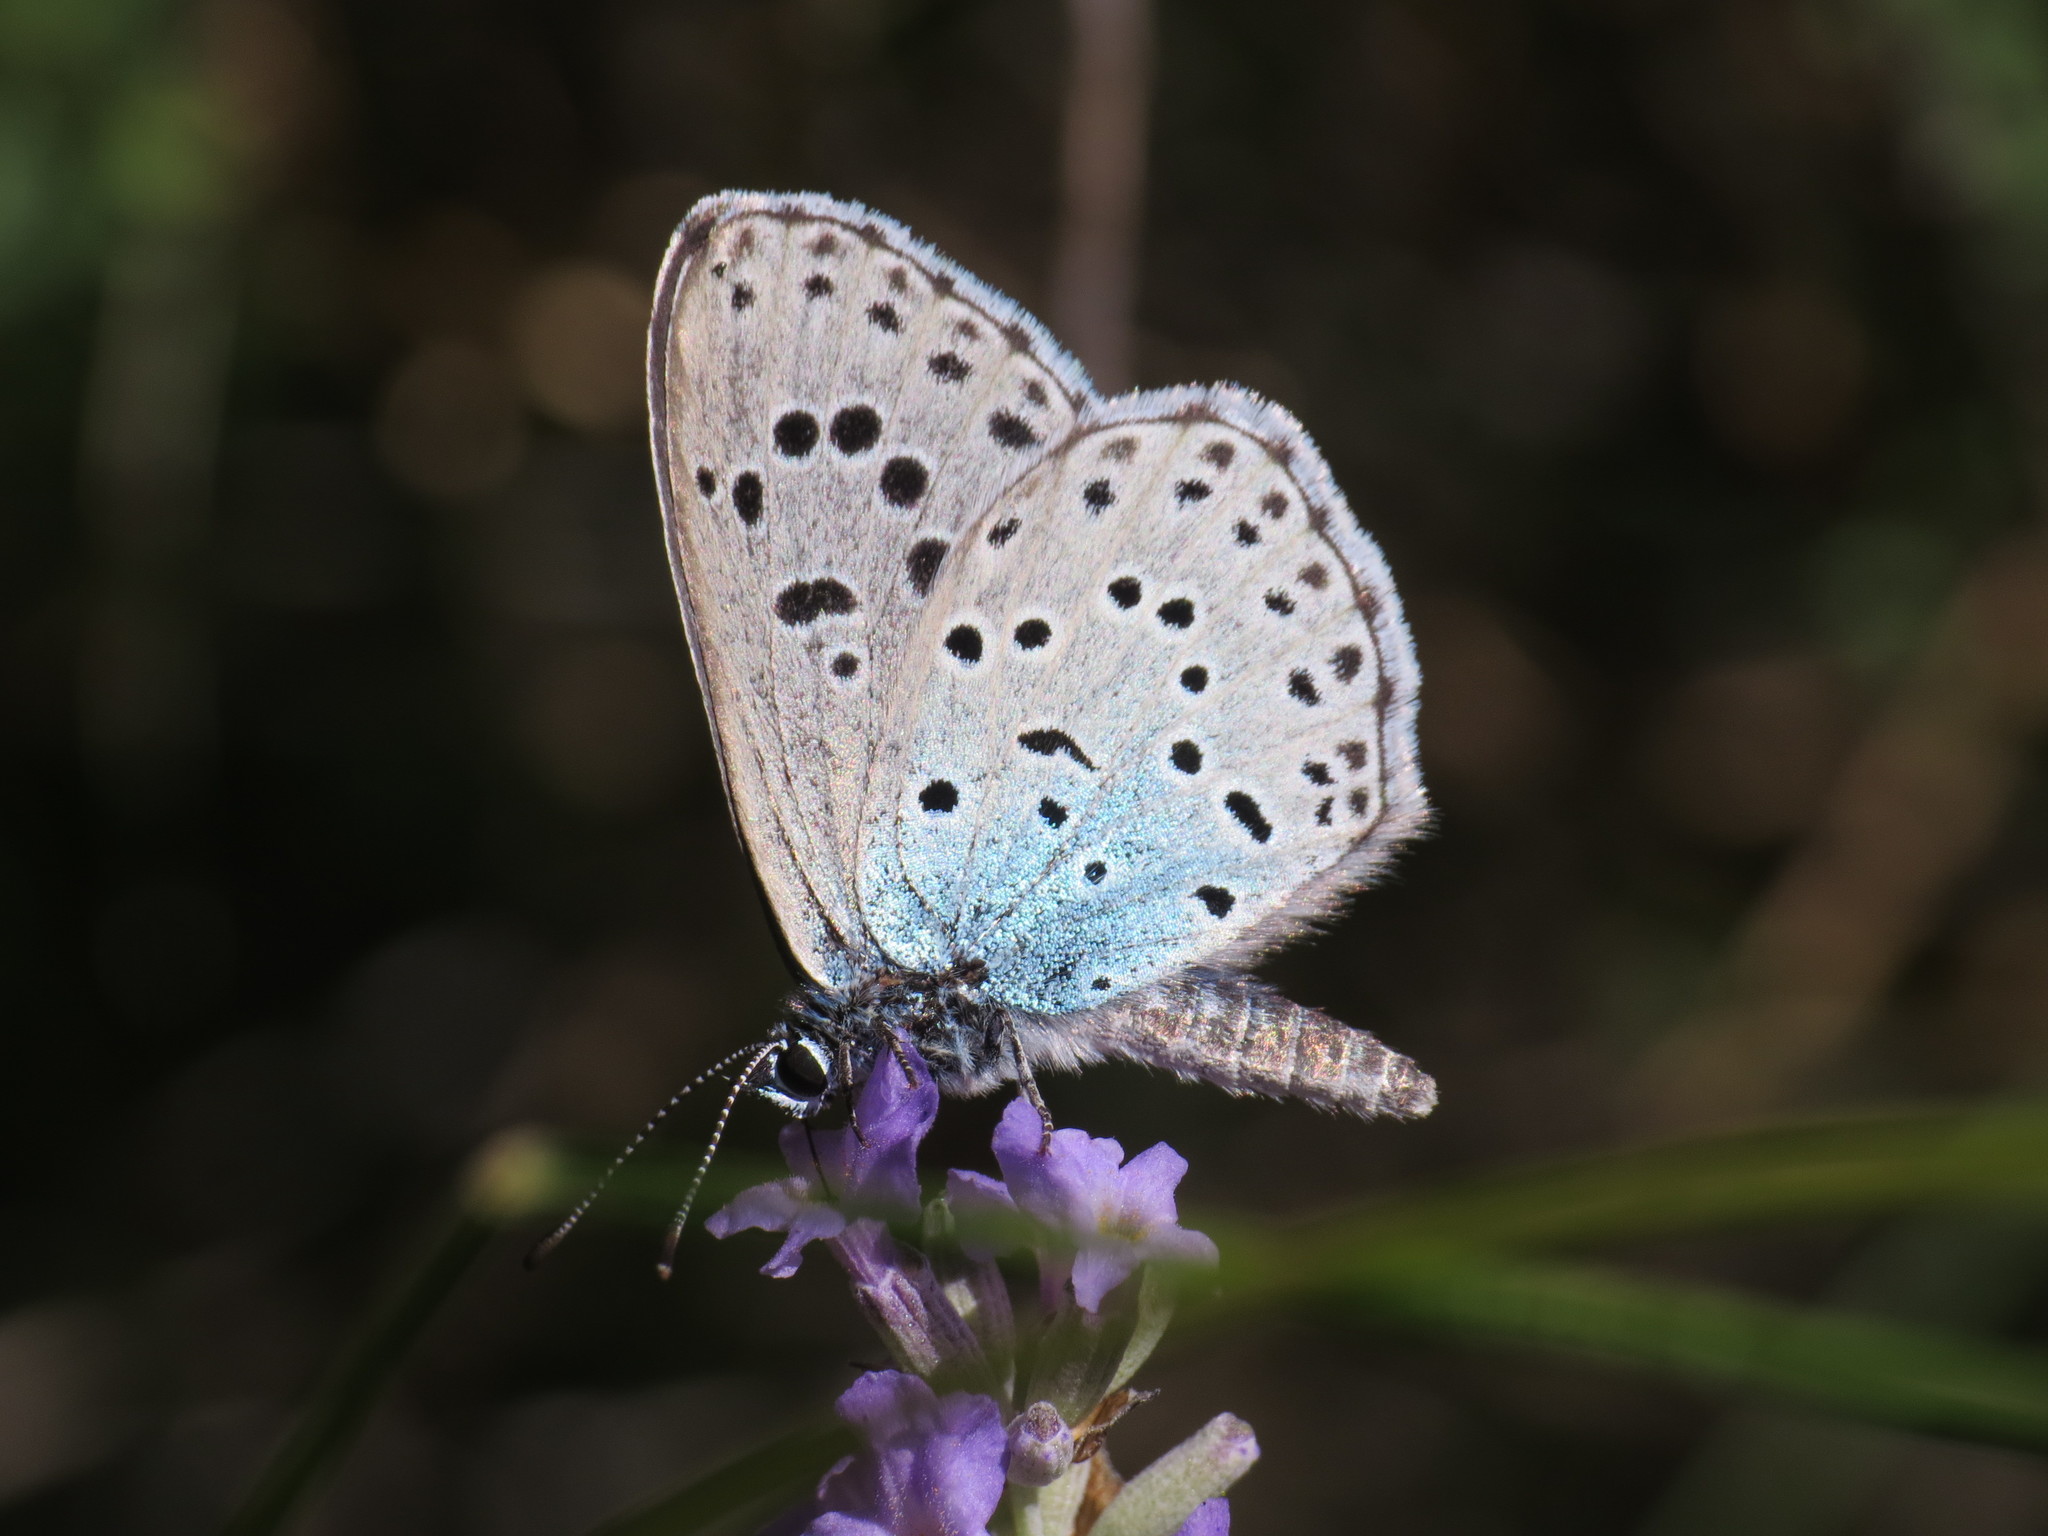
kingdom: Animalia
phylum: Arthropoda
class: Insecta
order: Lepidoptera
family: Lycaenidae
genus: Maculinea
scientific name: Maculinea arion
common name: Large blue
